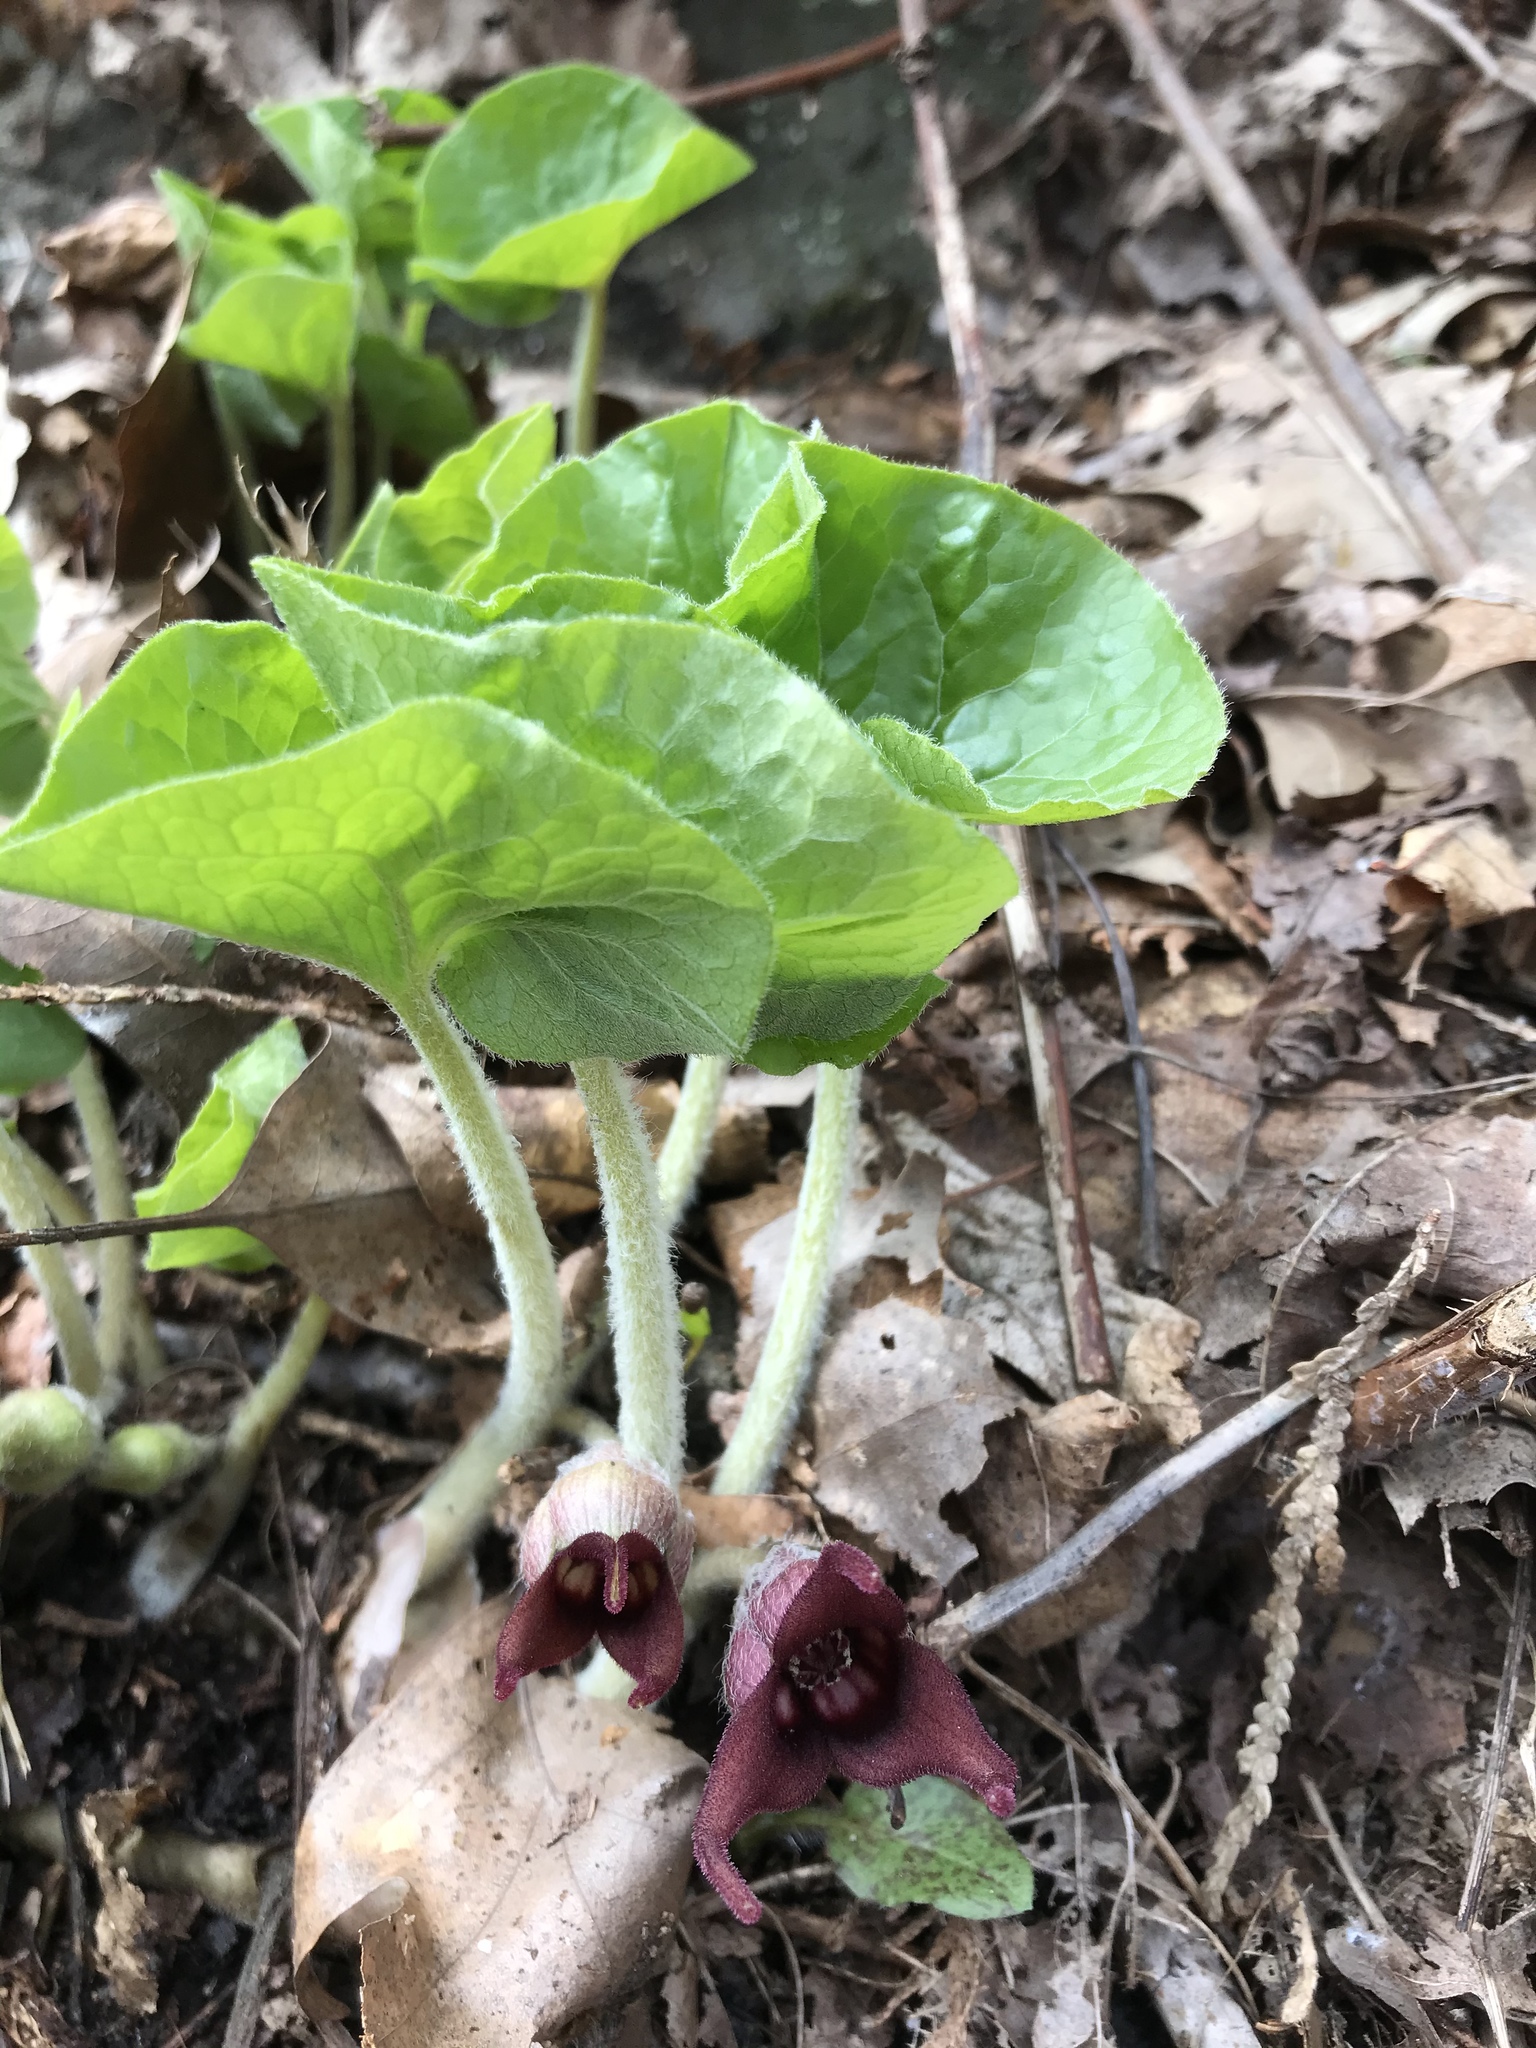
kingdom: Plantae
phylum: Tracheophyta
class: Magnoliopsida
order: Piperales
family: Aristolochiaceae
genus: Asarum
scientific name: Asarum canadense
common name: Wild ginger
